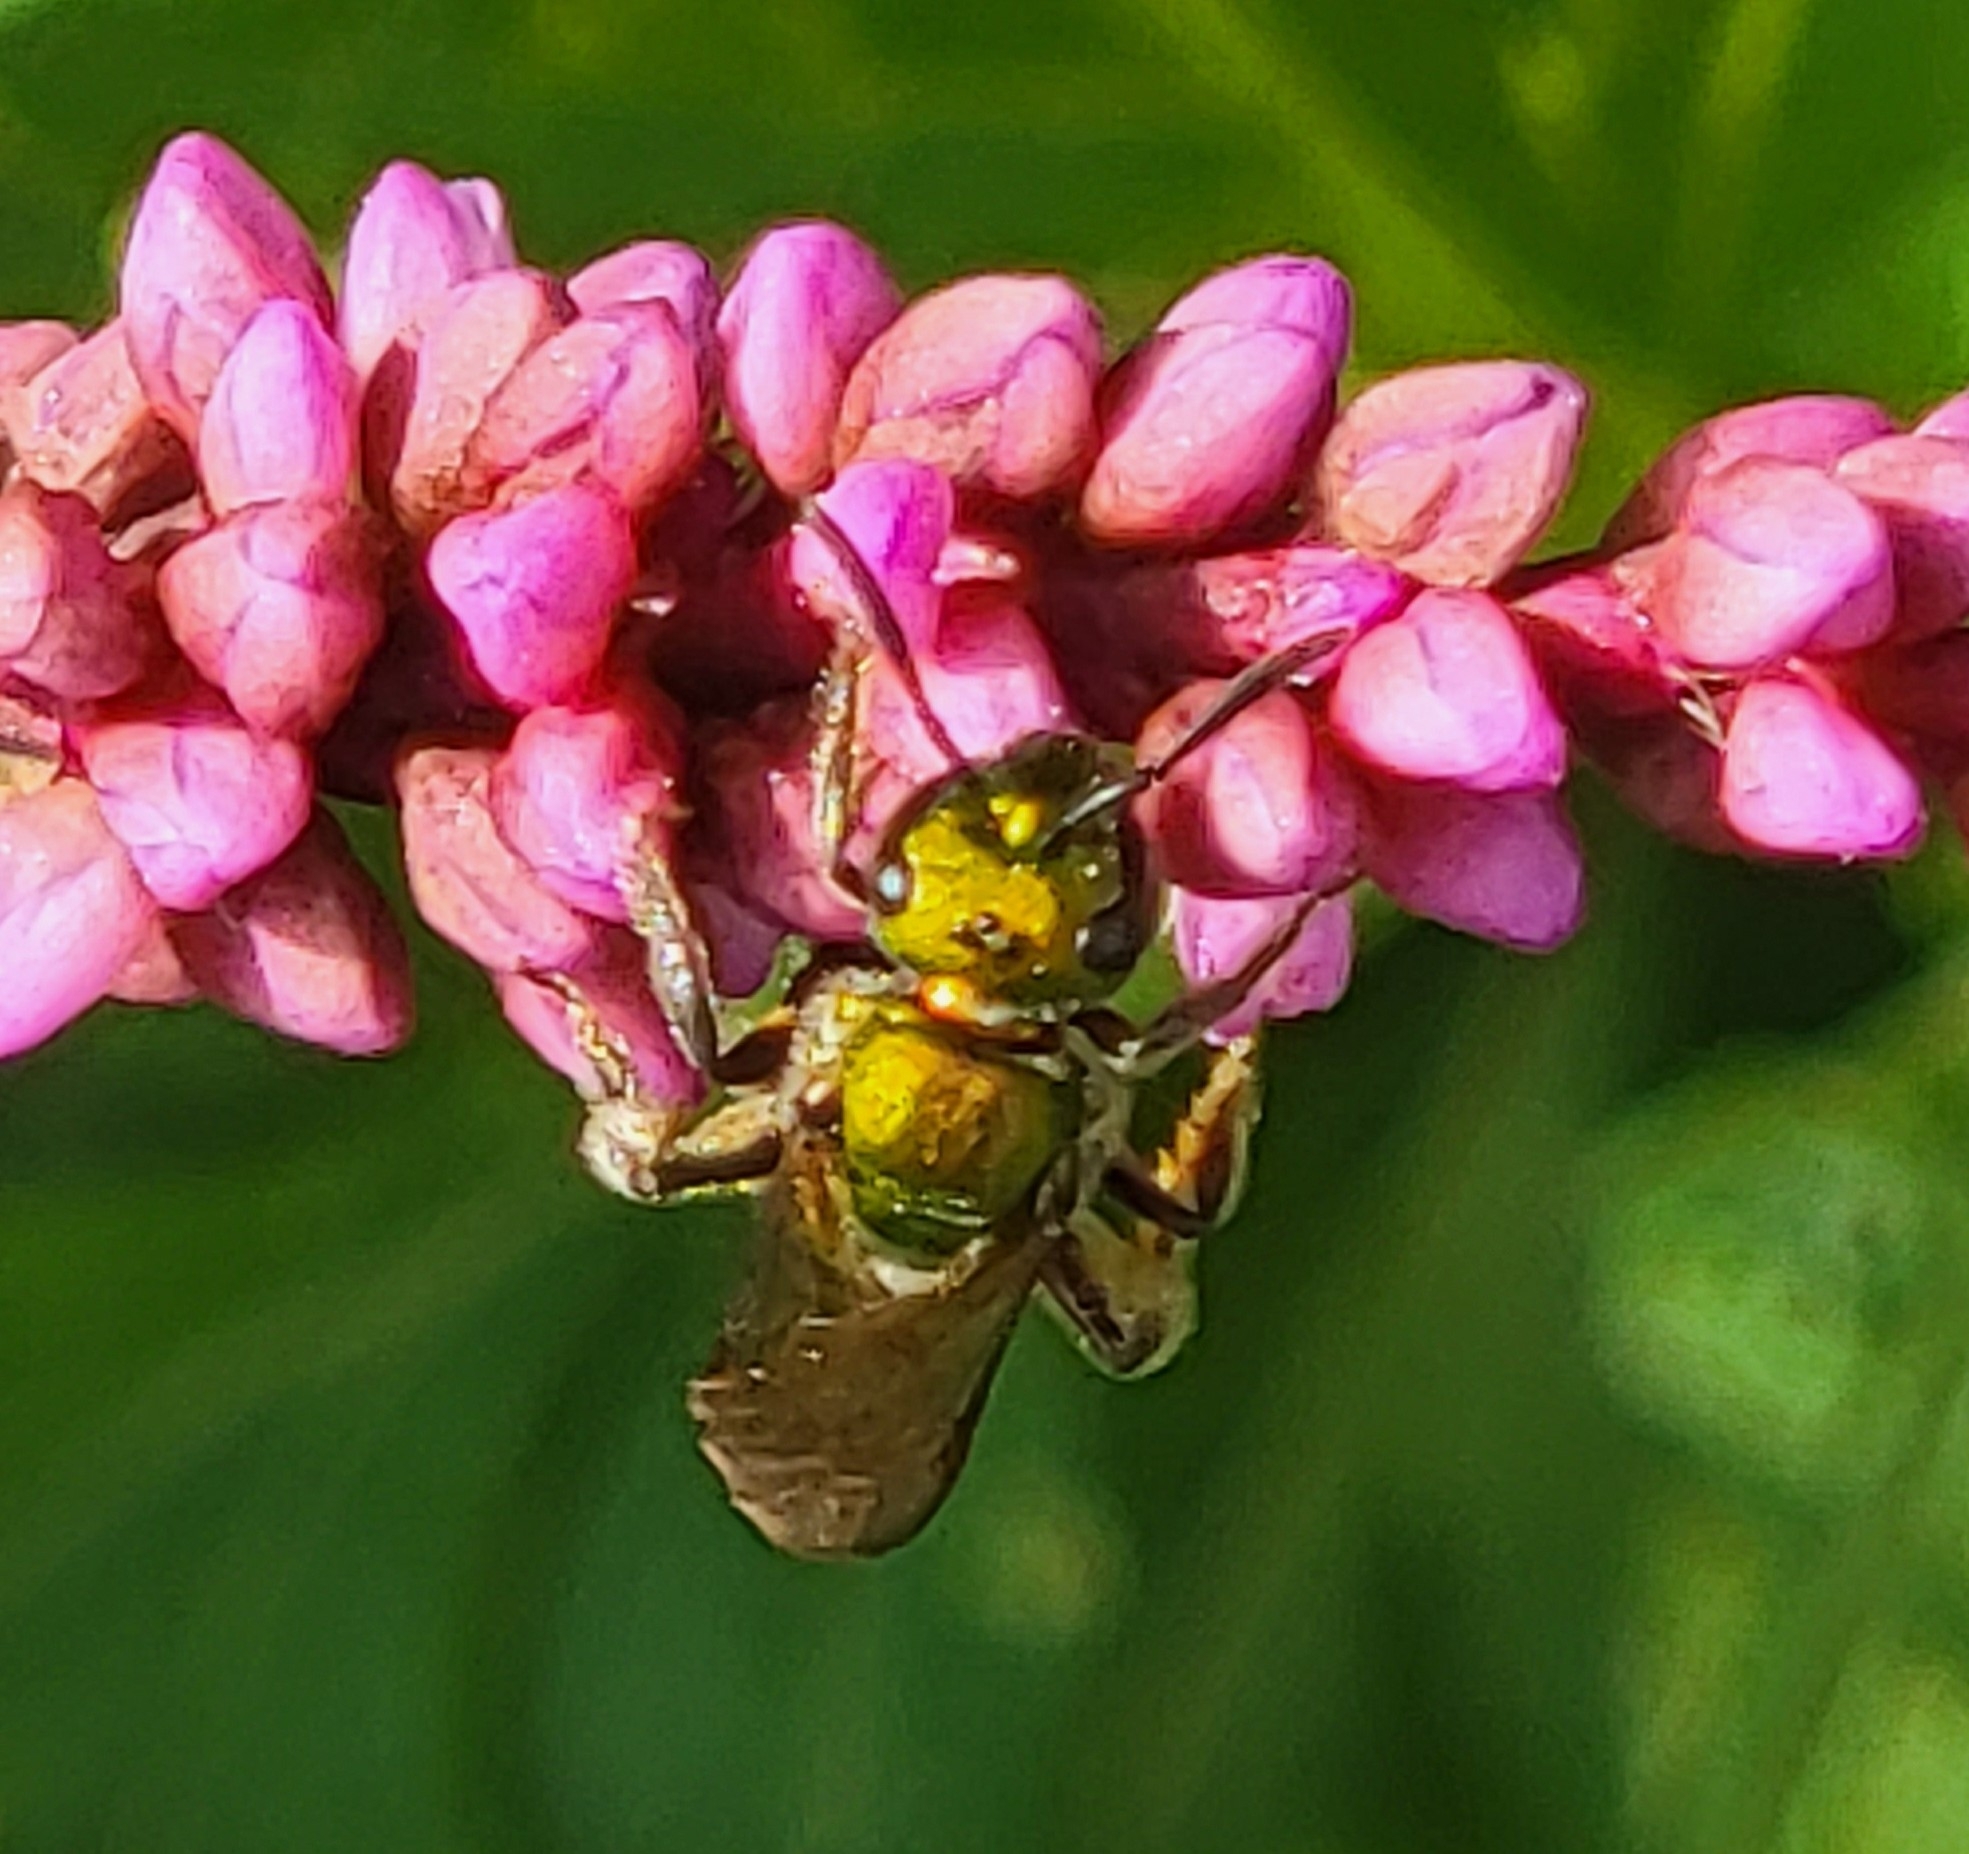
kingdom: Animalia
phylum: Arthropoda
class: Insecta
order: Hymenoptera
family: Halictidae
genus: Augochlora
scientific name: Augochlora pura
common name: Pure green sweat bee
